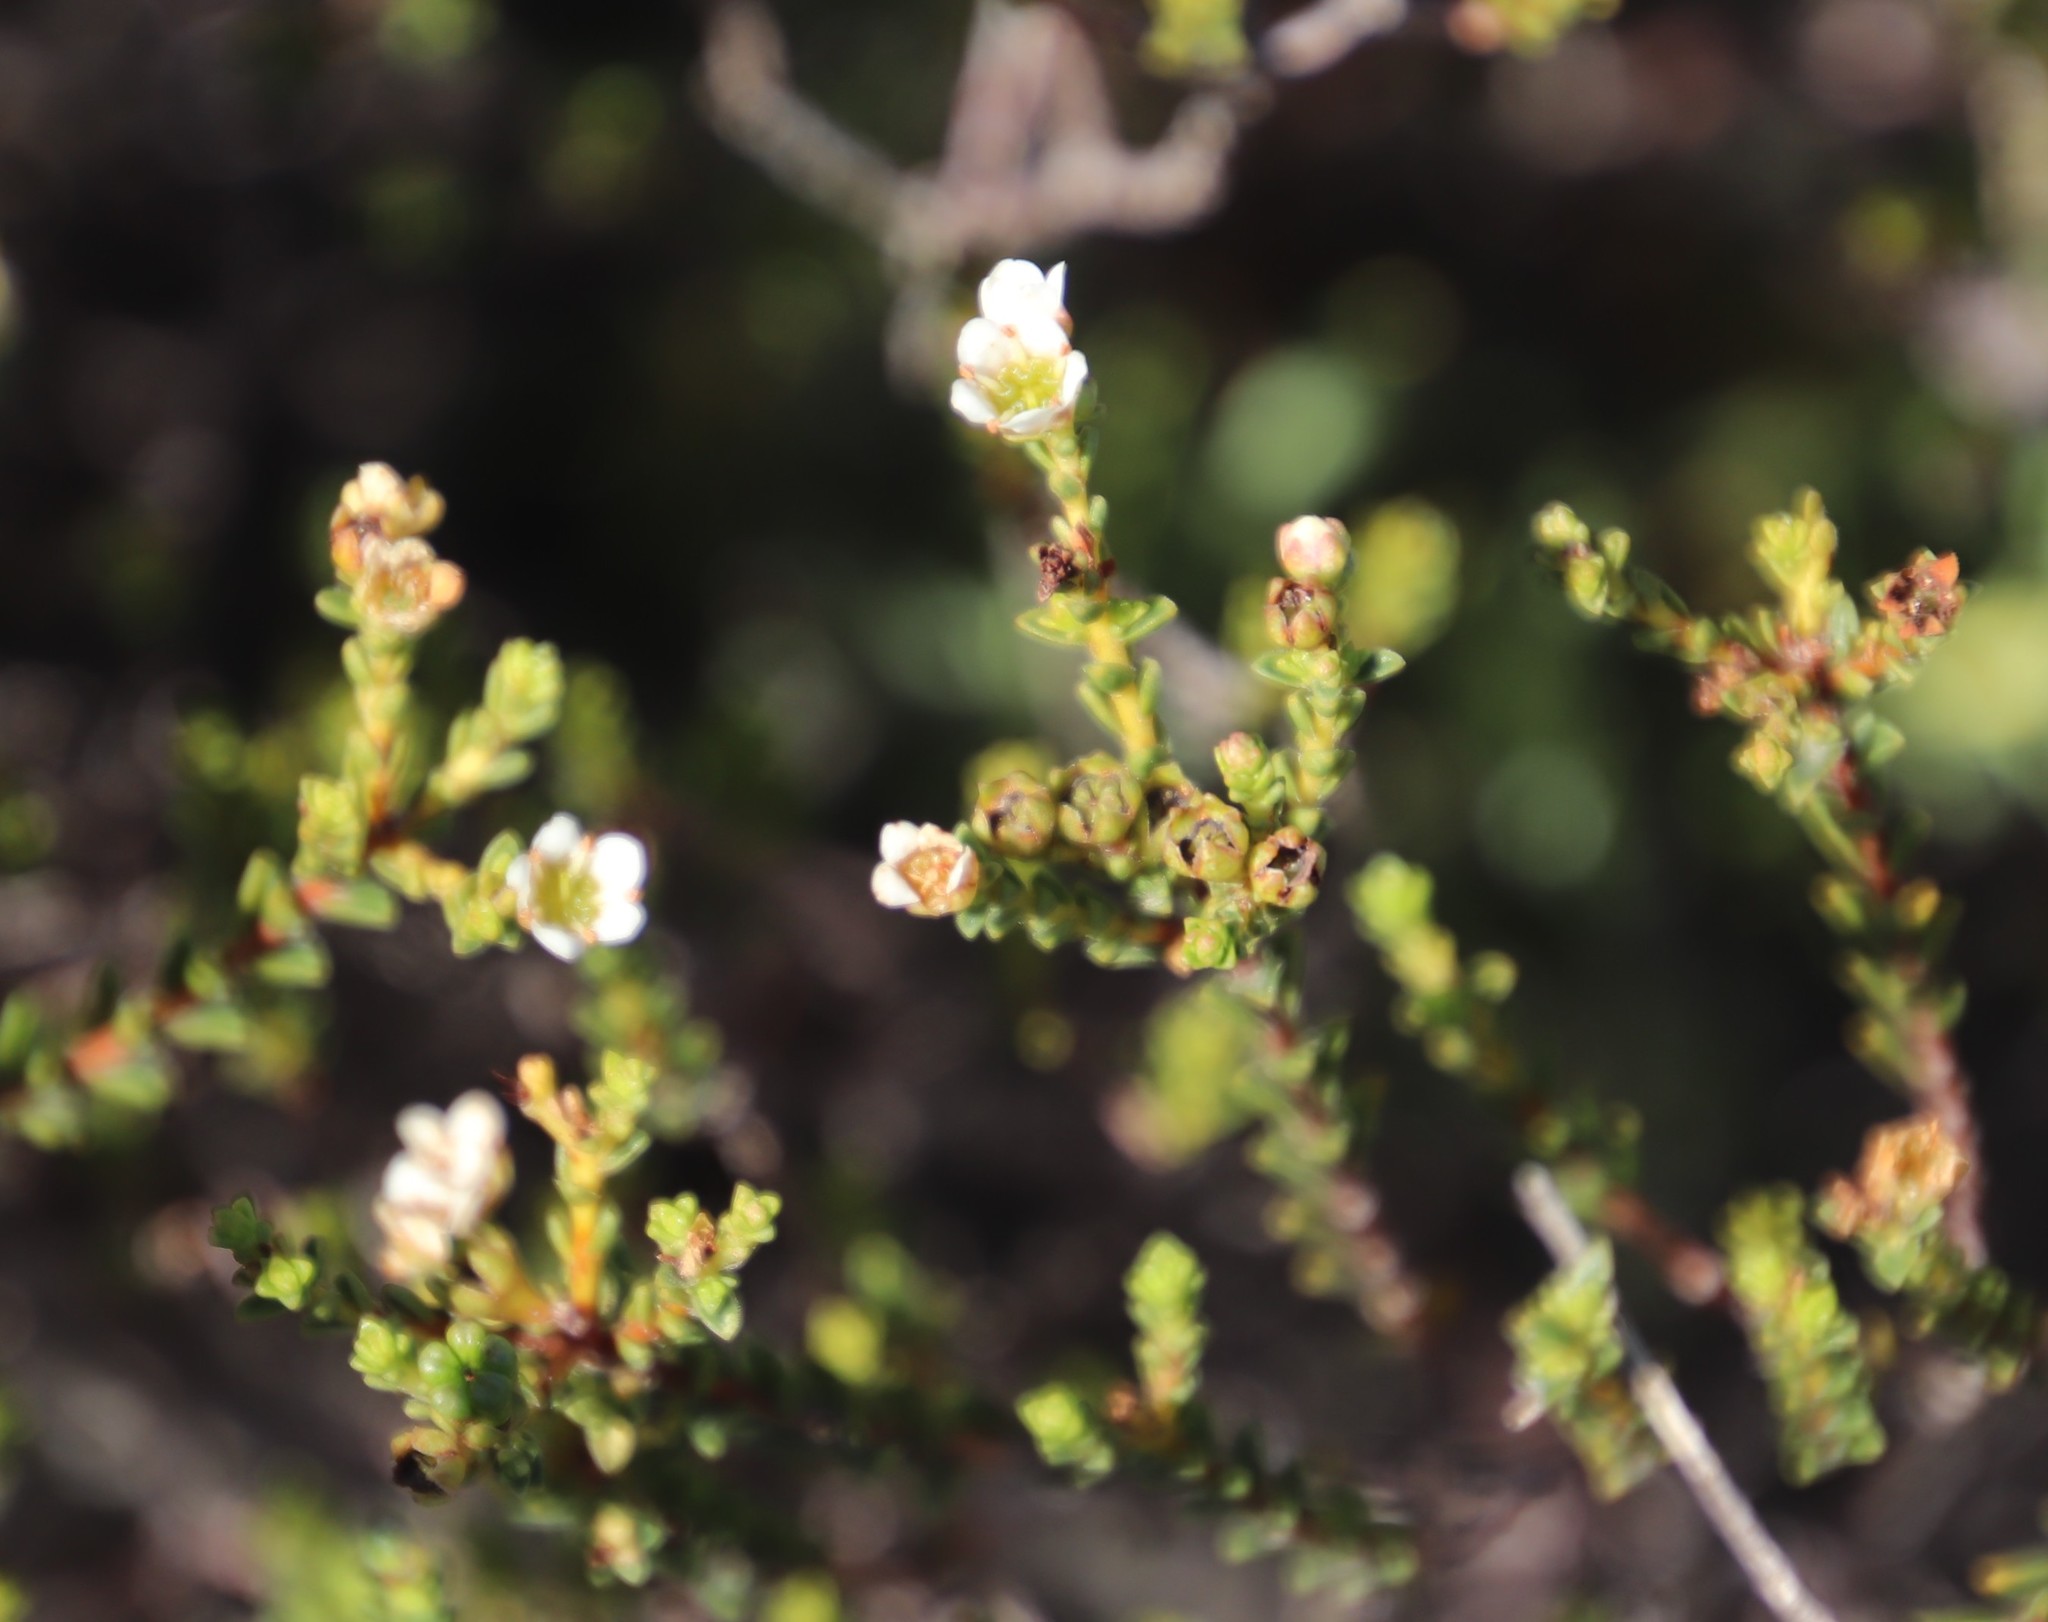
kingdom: Plantae
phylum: Tracheophyta
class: Magnoliopsida
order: Sapindales
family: Rutaceae
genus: Diosma
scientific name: Diosma oppositifolia
